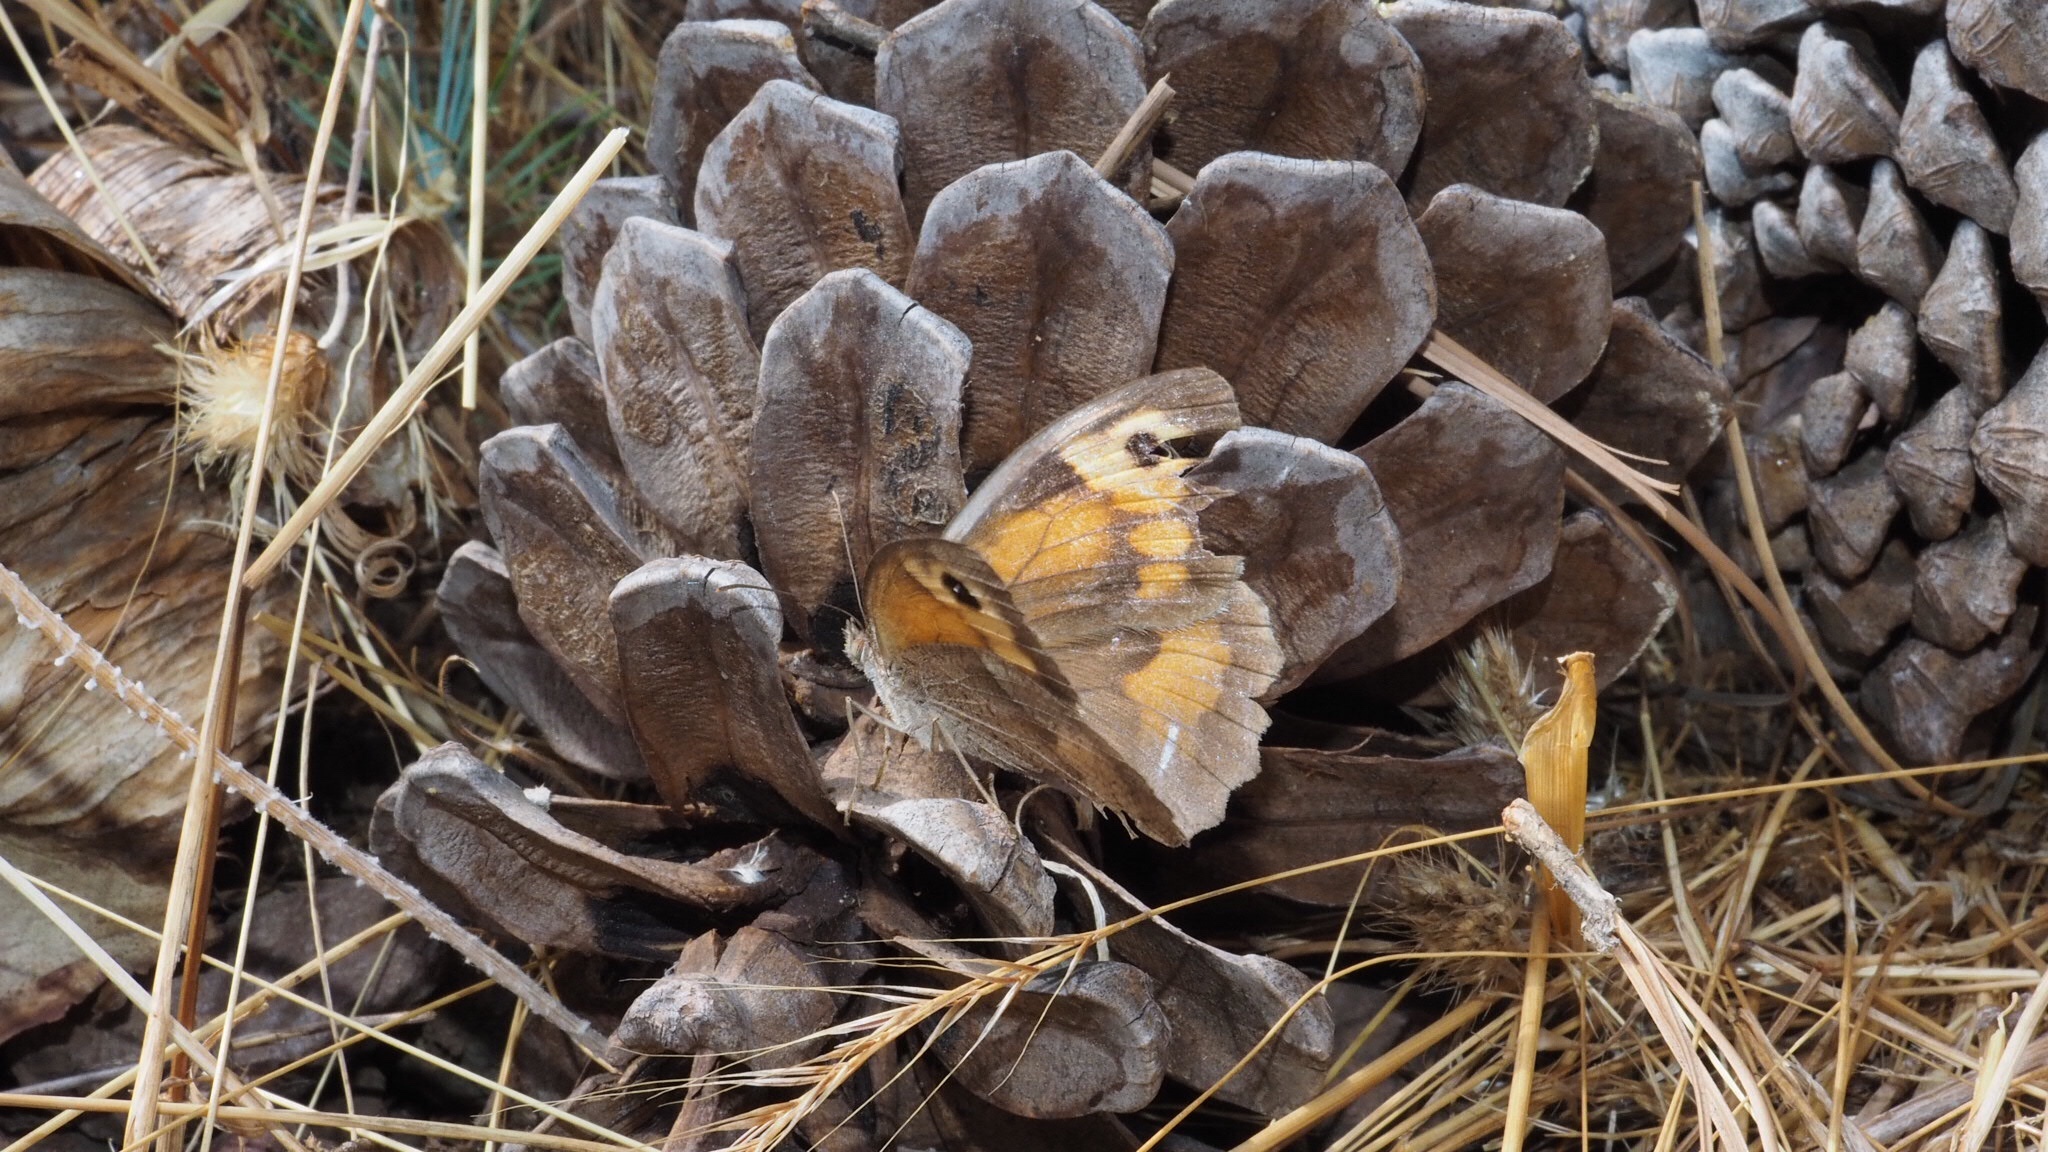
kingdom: Animalia
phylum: Arthropoda
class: Insecta
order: Lepidoptera
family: Nymphalidae
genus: Maniola
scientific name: Maniola jurtina
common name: Meadow brown
